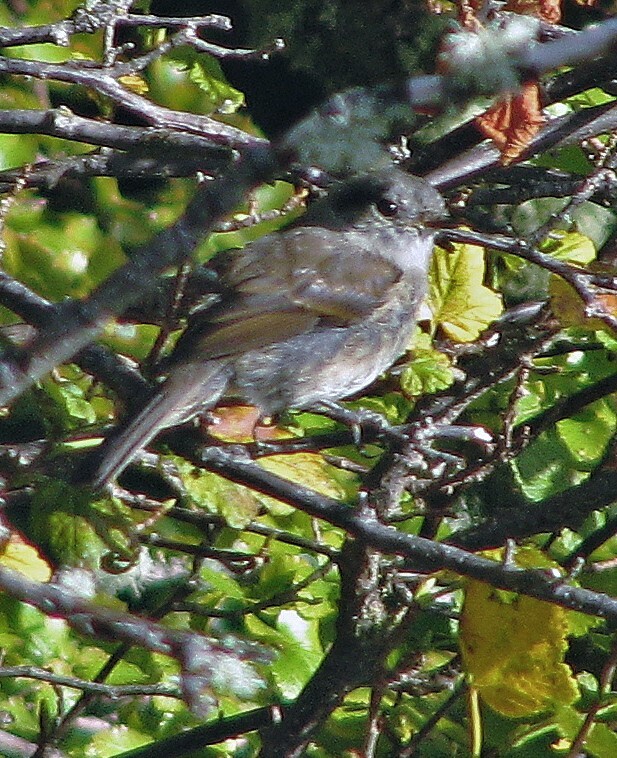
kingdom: Animalia
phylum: Chordata
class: Aves
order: Passeriformes
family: Tyrannidae
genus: Colorhamphus
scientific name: Colorhamphus parvirostris
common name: Patagonian tyrant
